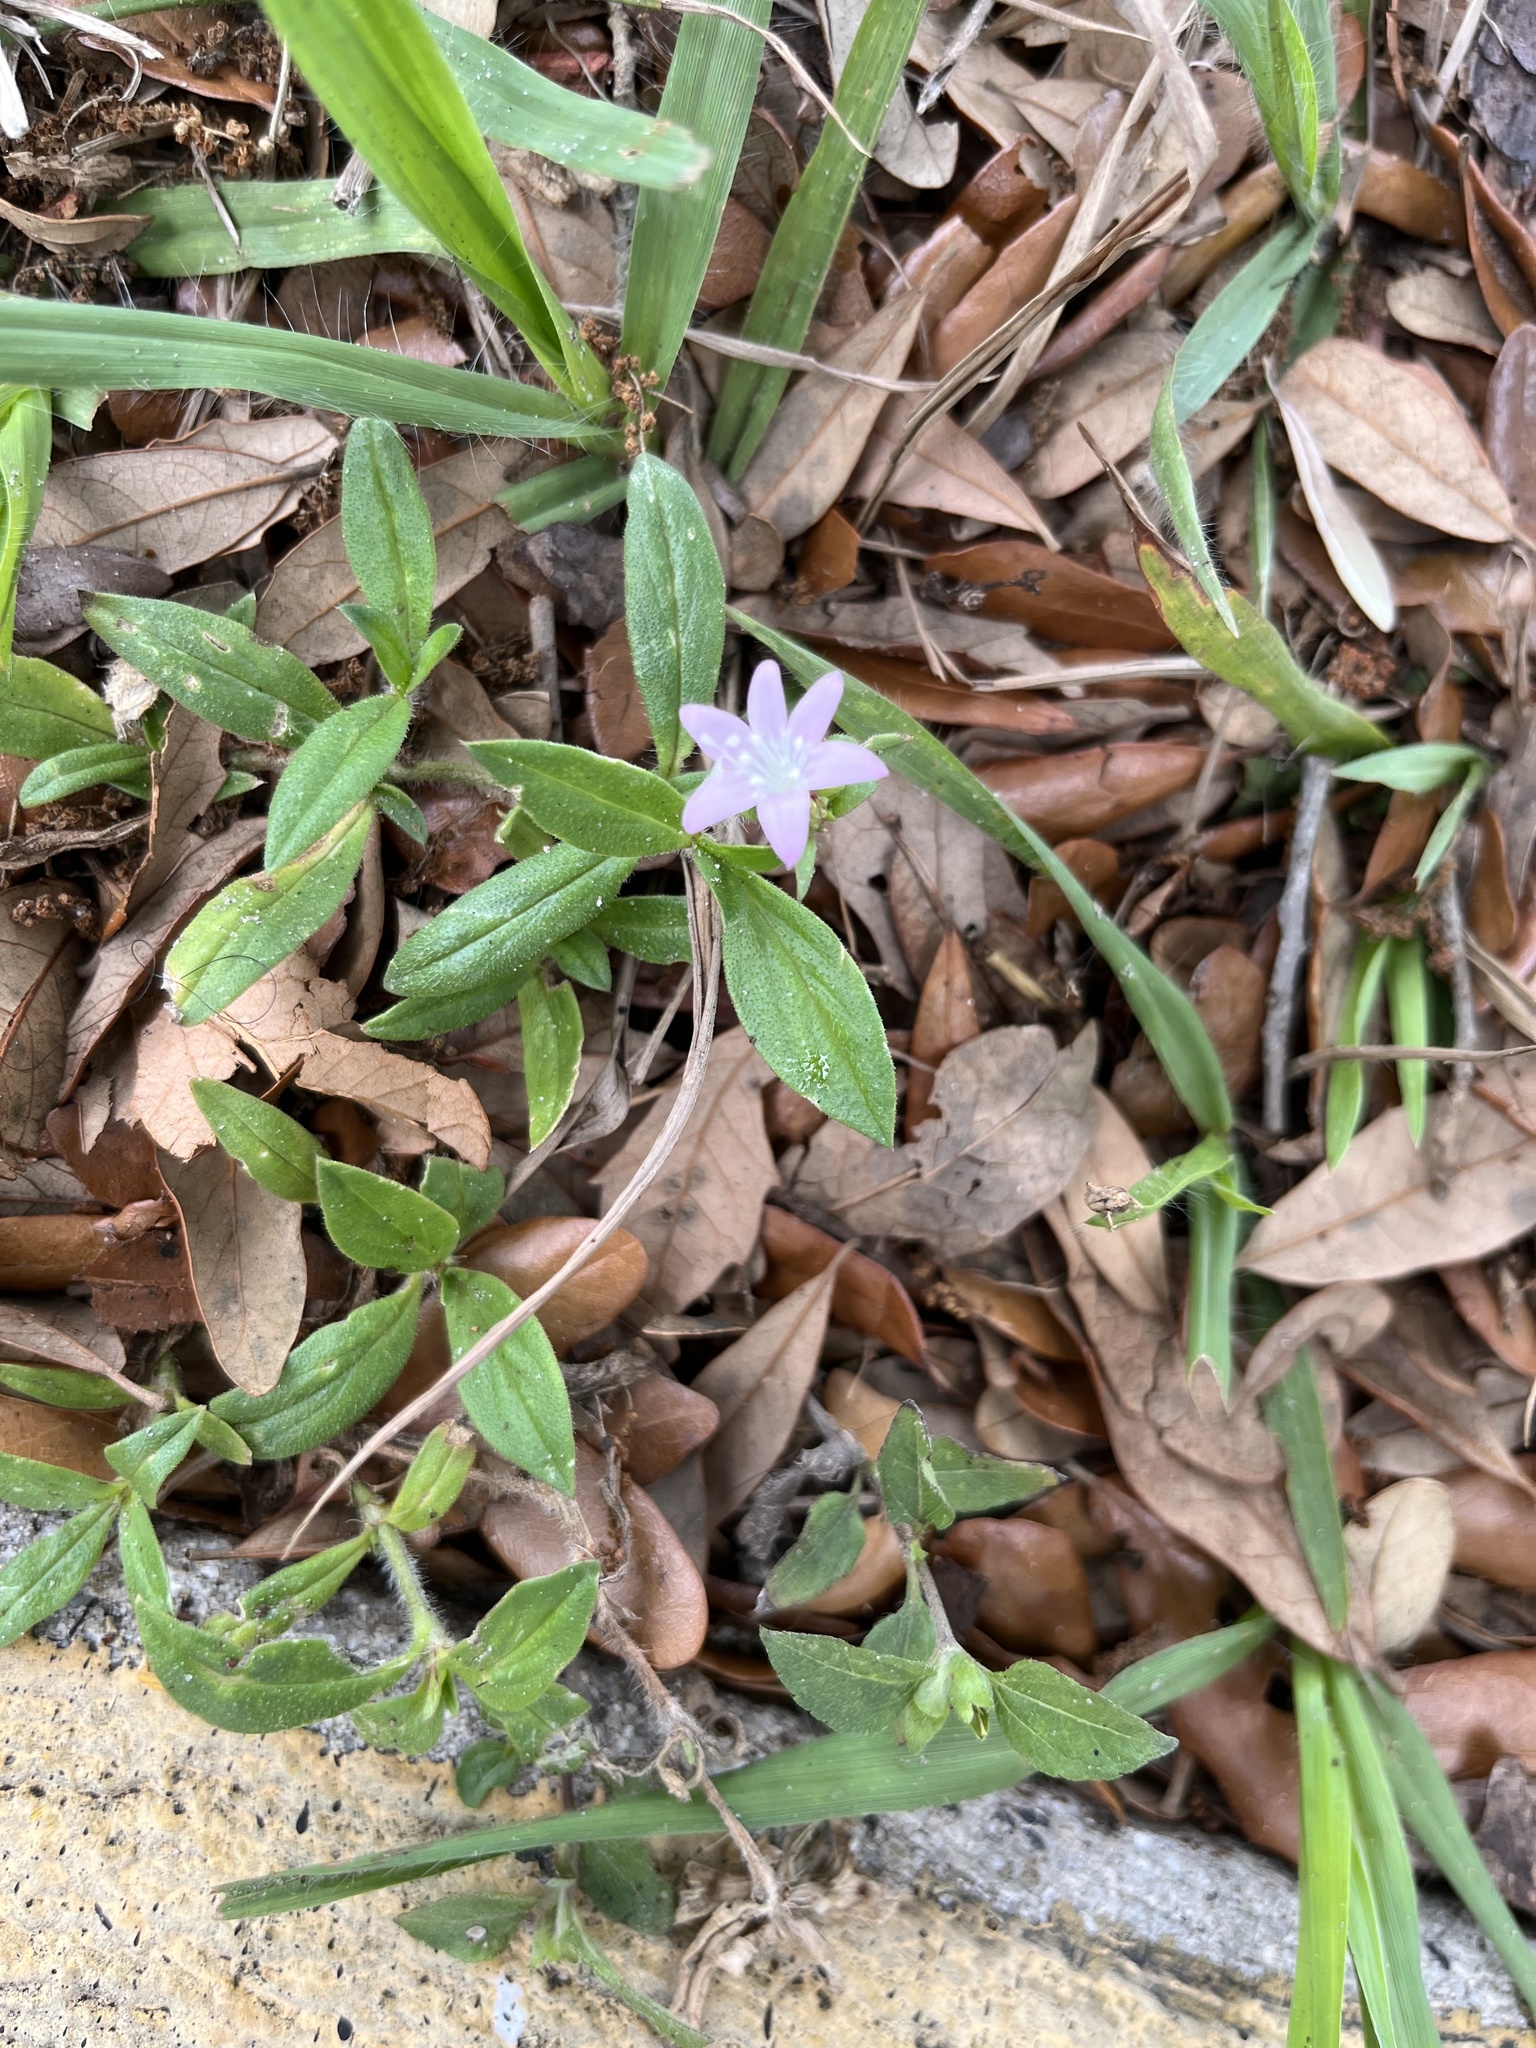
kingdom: Plantae
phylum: Tracheophyta
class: Magnoliopsida
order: Gentianales
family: Rubiaceae
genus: Richardia
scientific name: Richardia grandiflora
